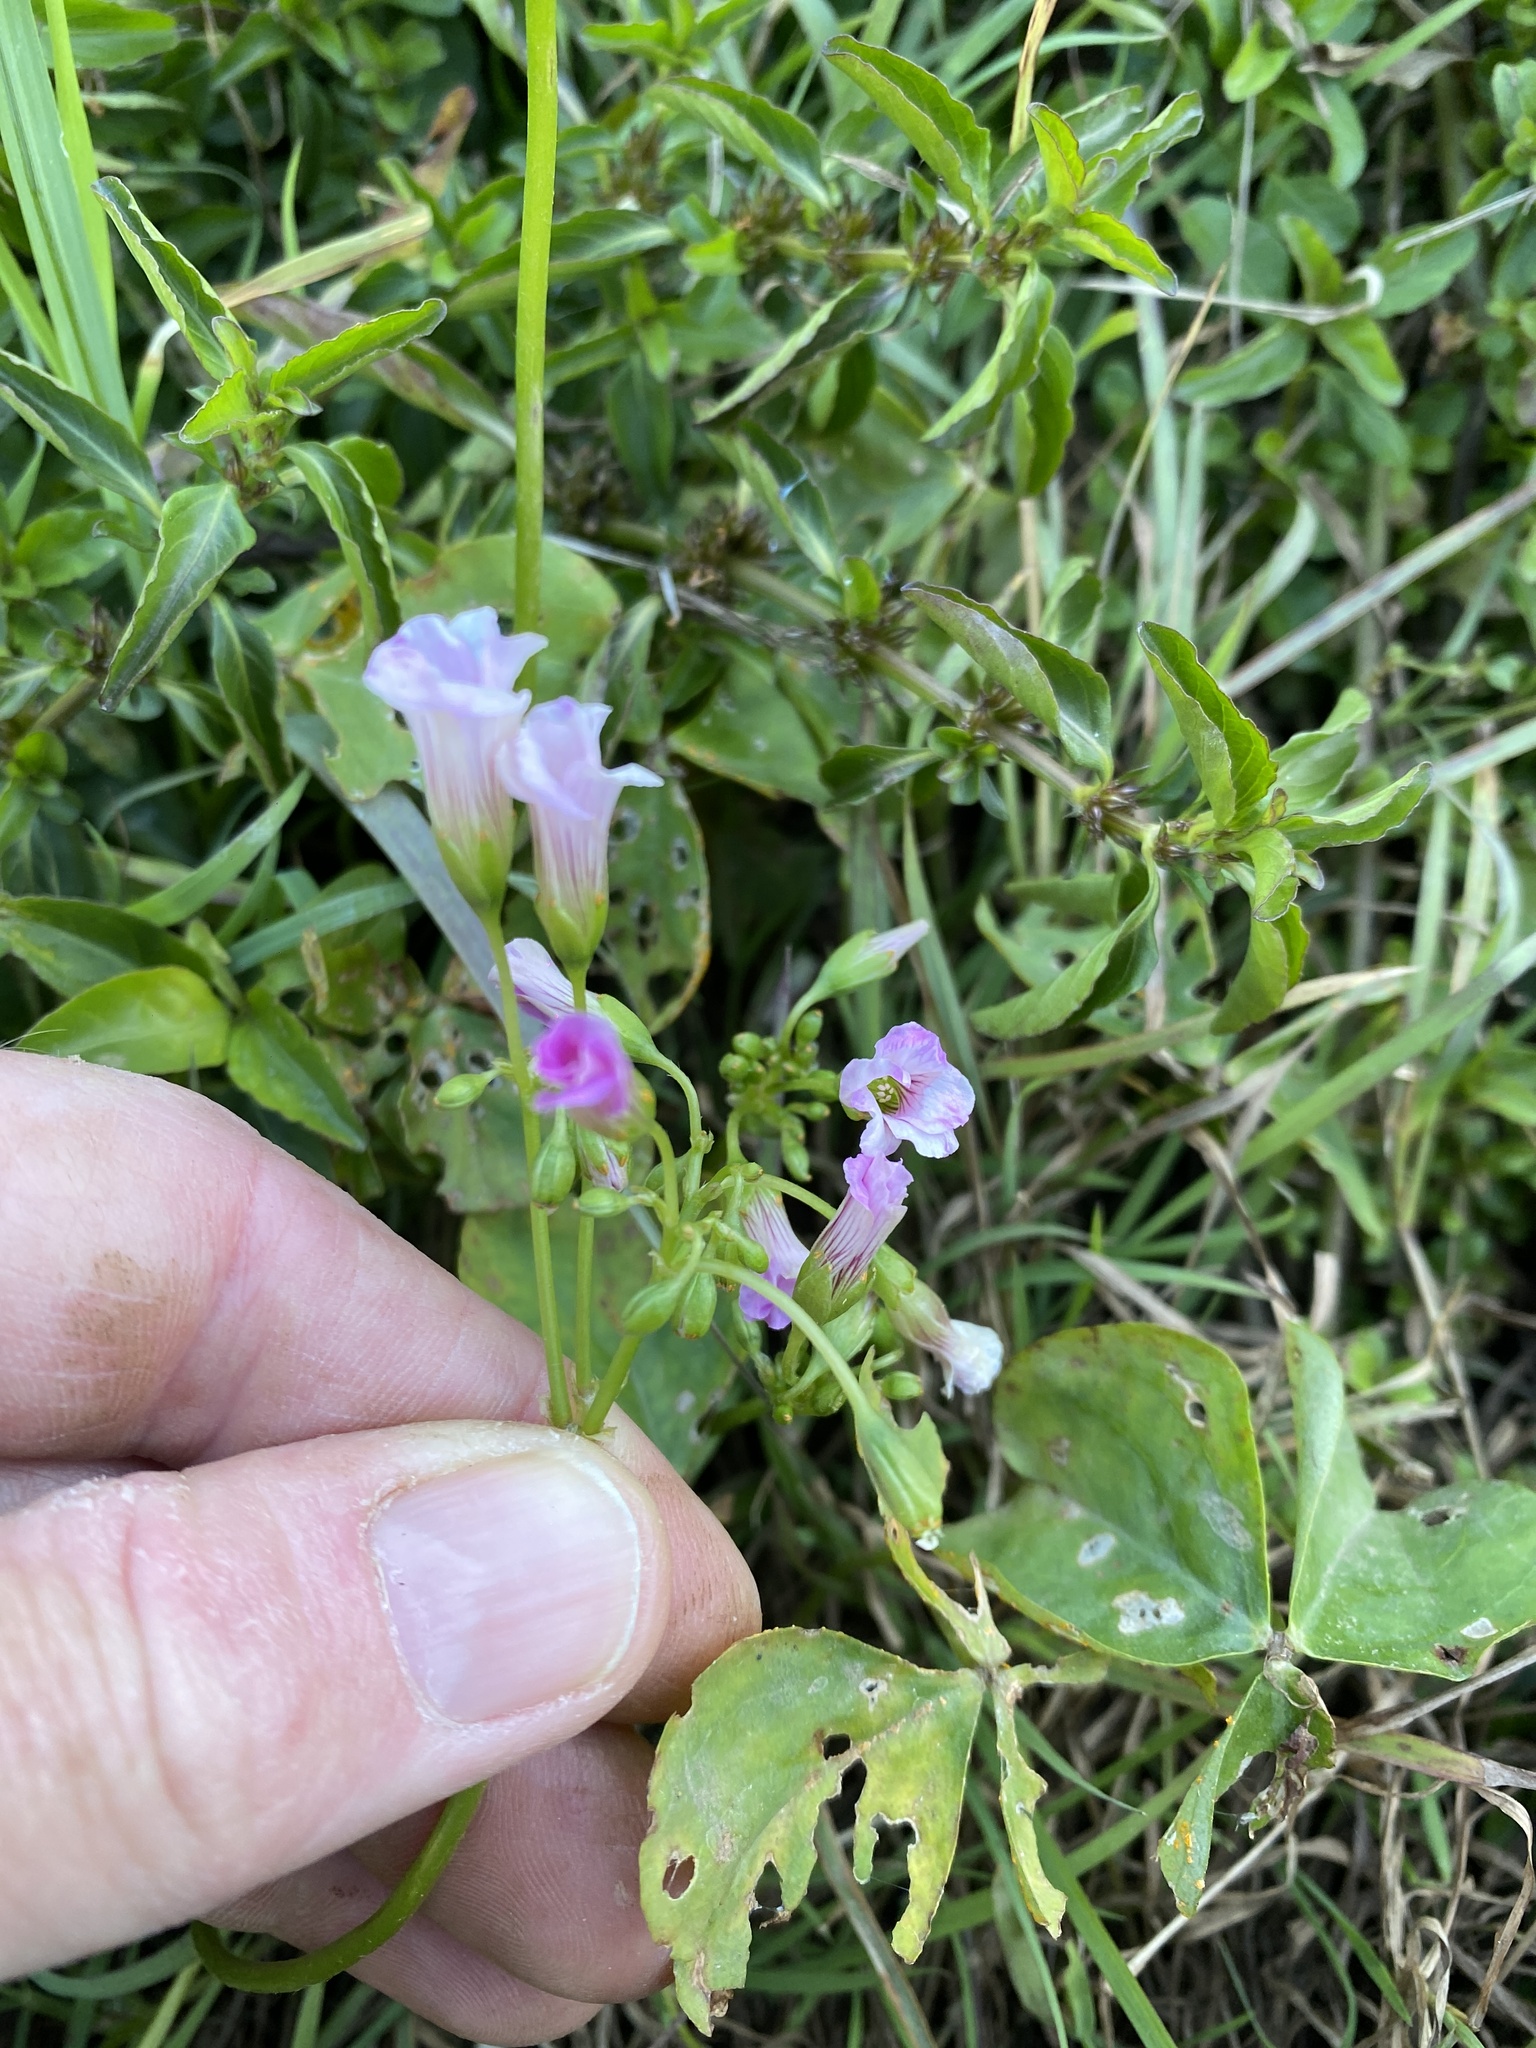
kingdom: Plantae
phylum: Tracheophyta
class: Magnoliopsida
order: Oxalidales
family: Oxalidaceae
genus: Oxalis
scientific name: Oxalis debilis
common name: Large-flowered pink-sorrel
